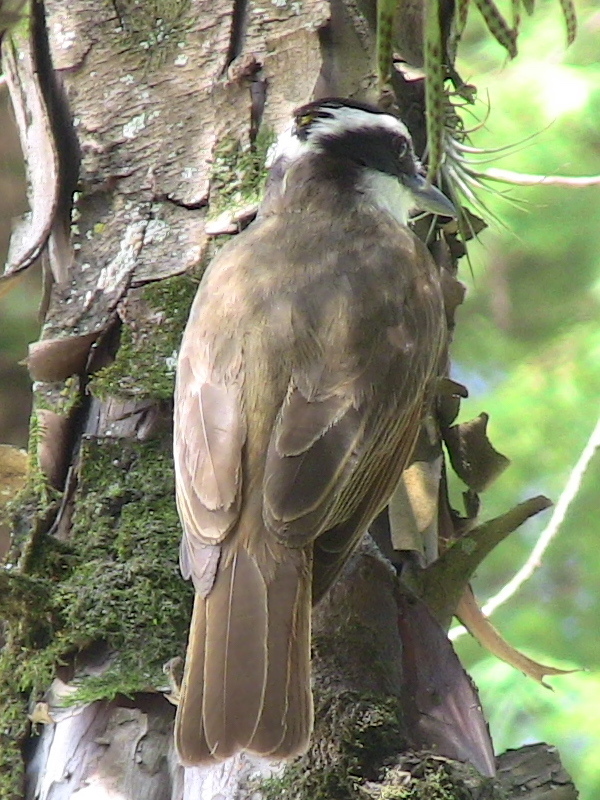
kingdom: Animalia
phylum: Chordata
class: Aves
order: Passeriformes
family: Tyrannidae
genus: Pitangus
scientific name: Pitangus sulphuratus
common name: Great kiskadee
